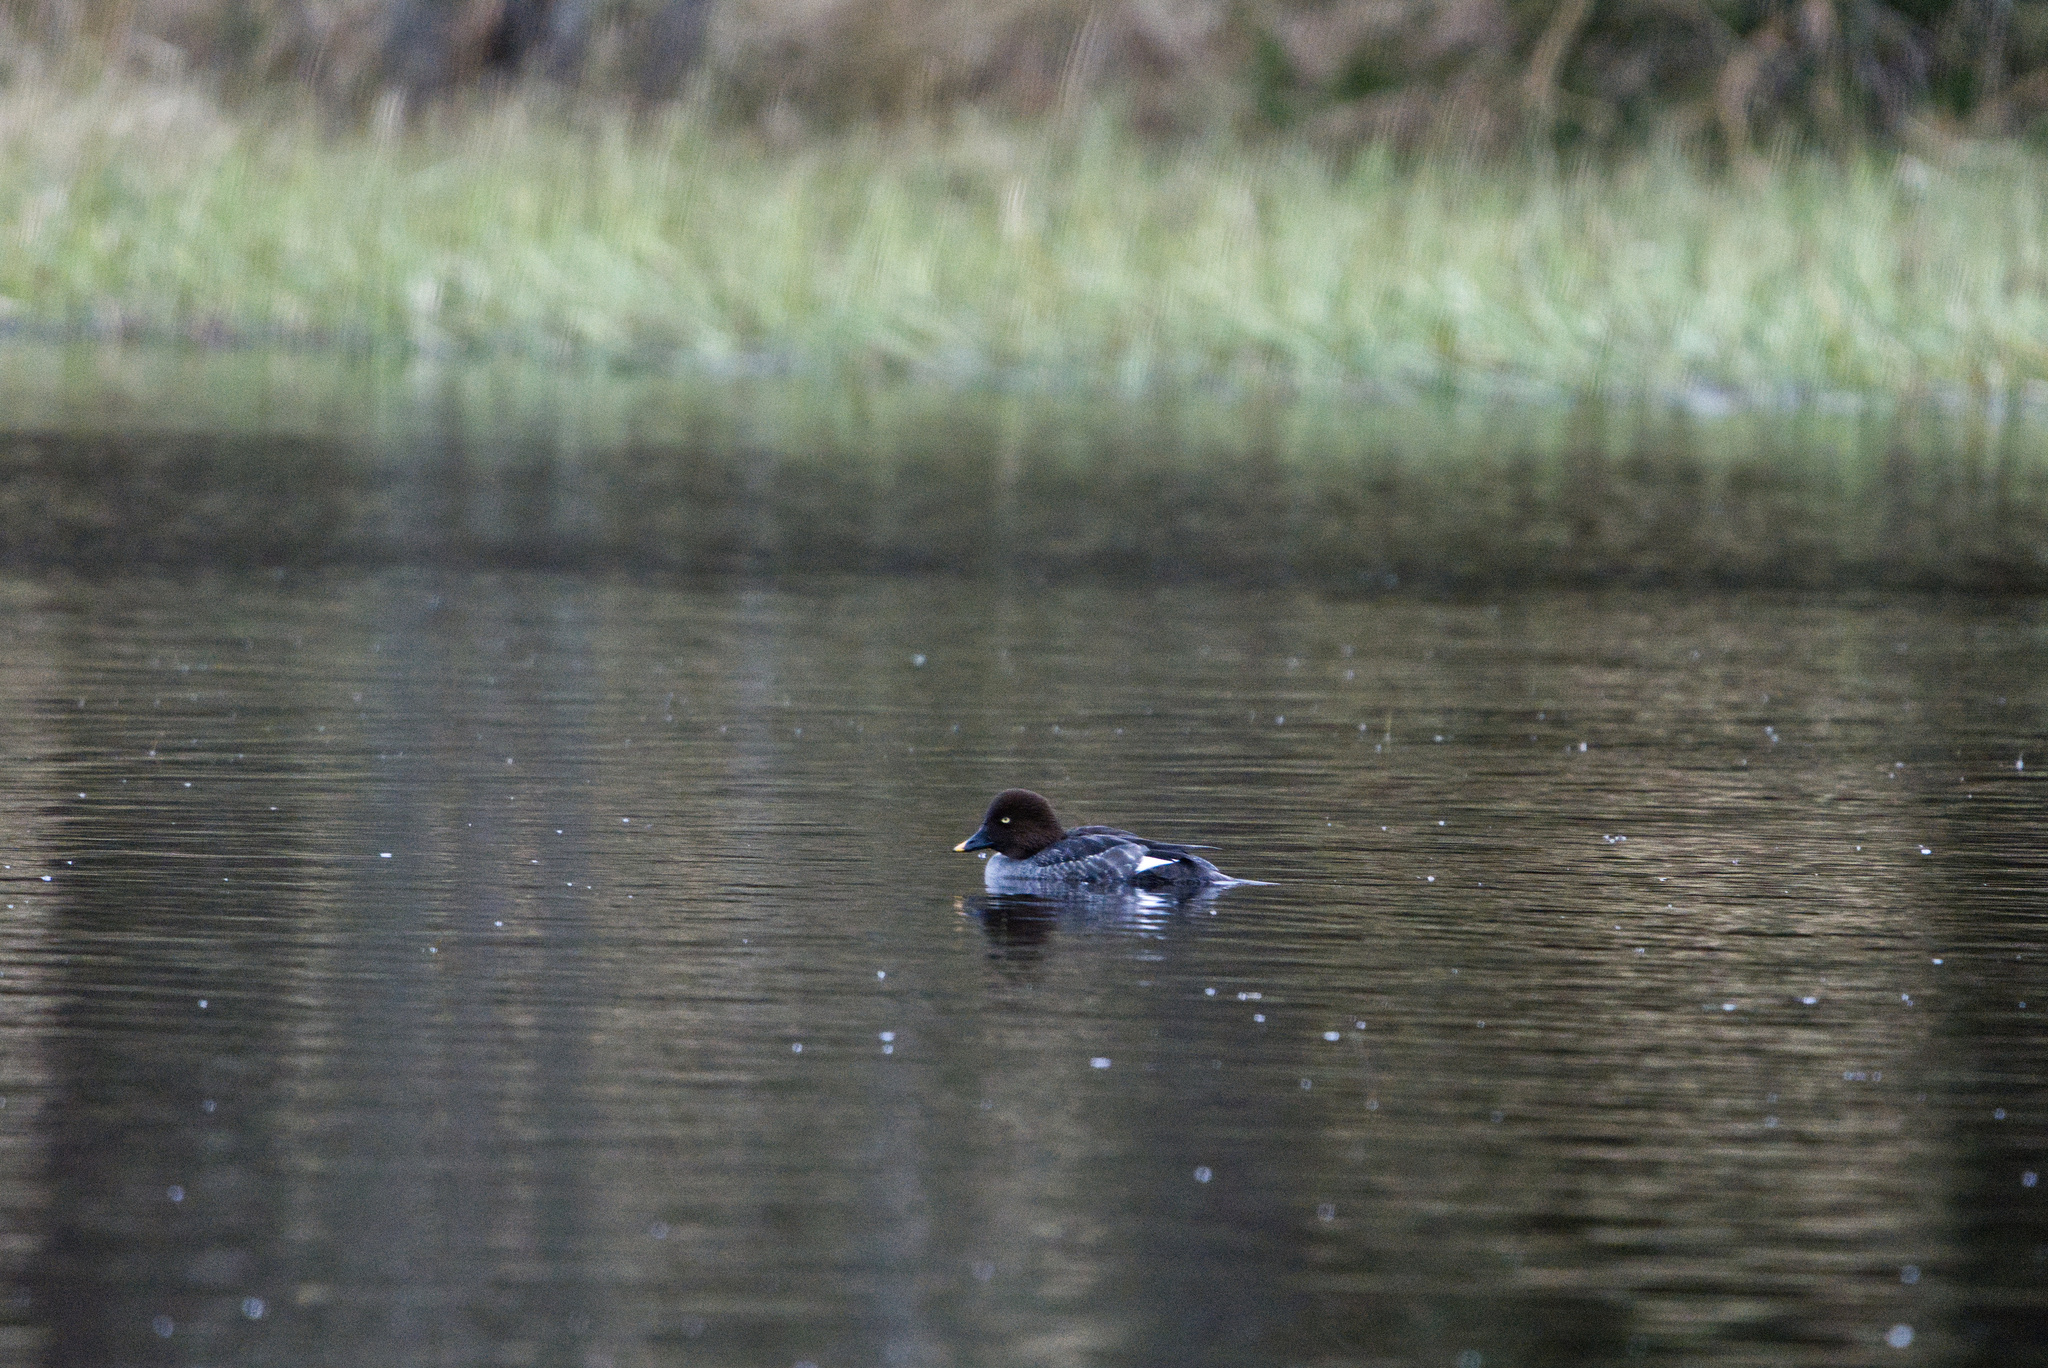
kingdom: Animalia
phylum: Chordata
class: Aves
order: Anseriformes
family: Anatidae
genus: Bucephala
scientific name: Bucephala clangula
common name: Common goldeneye
